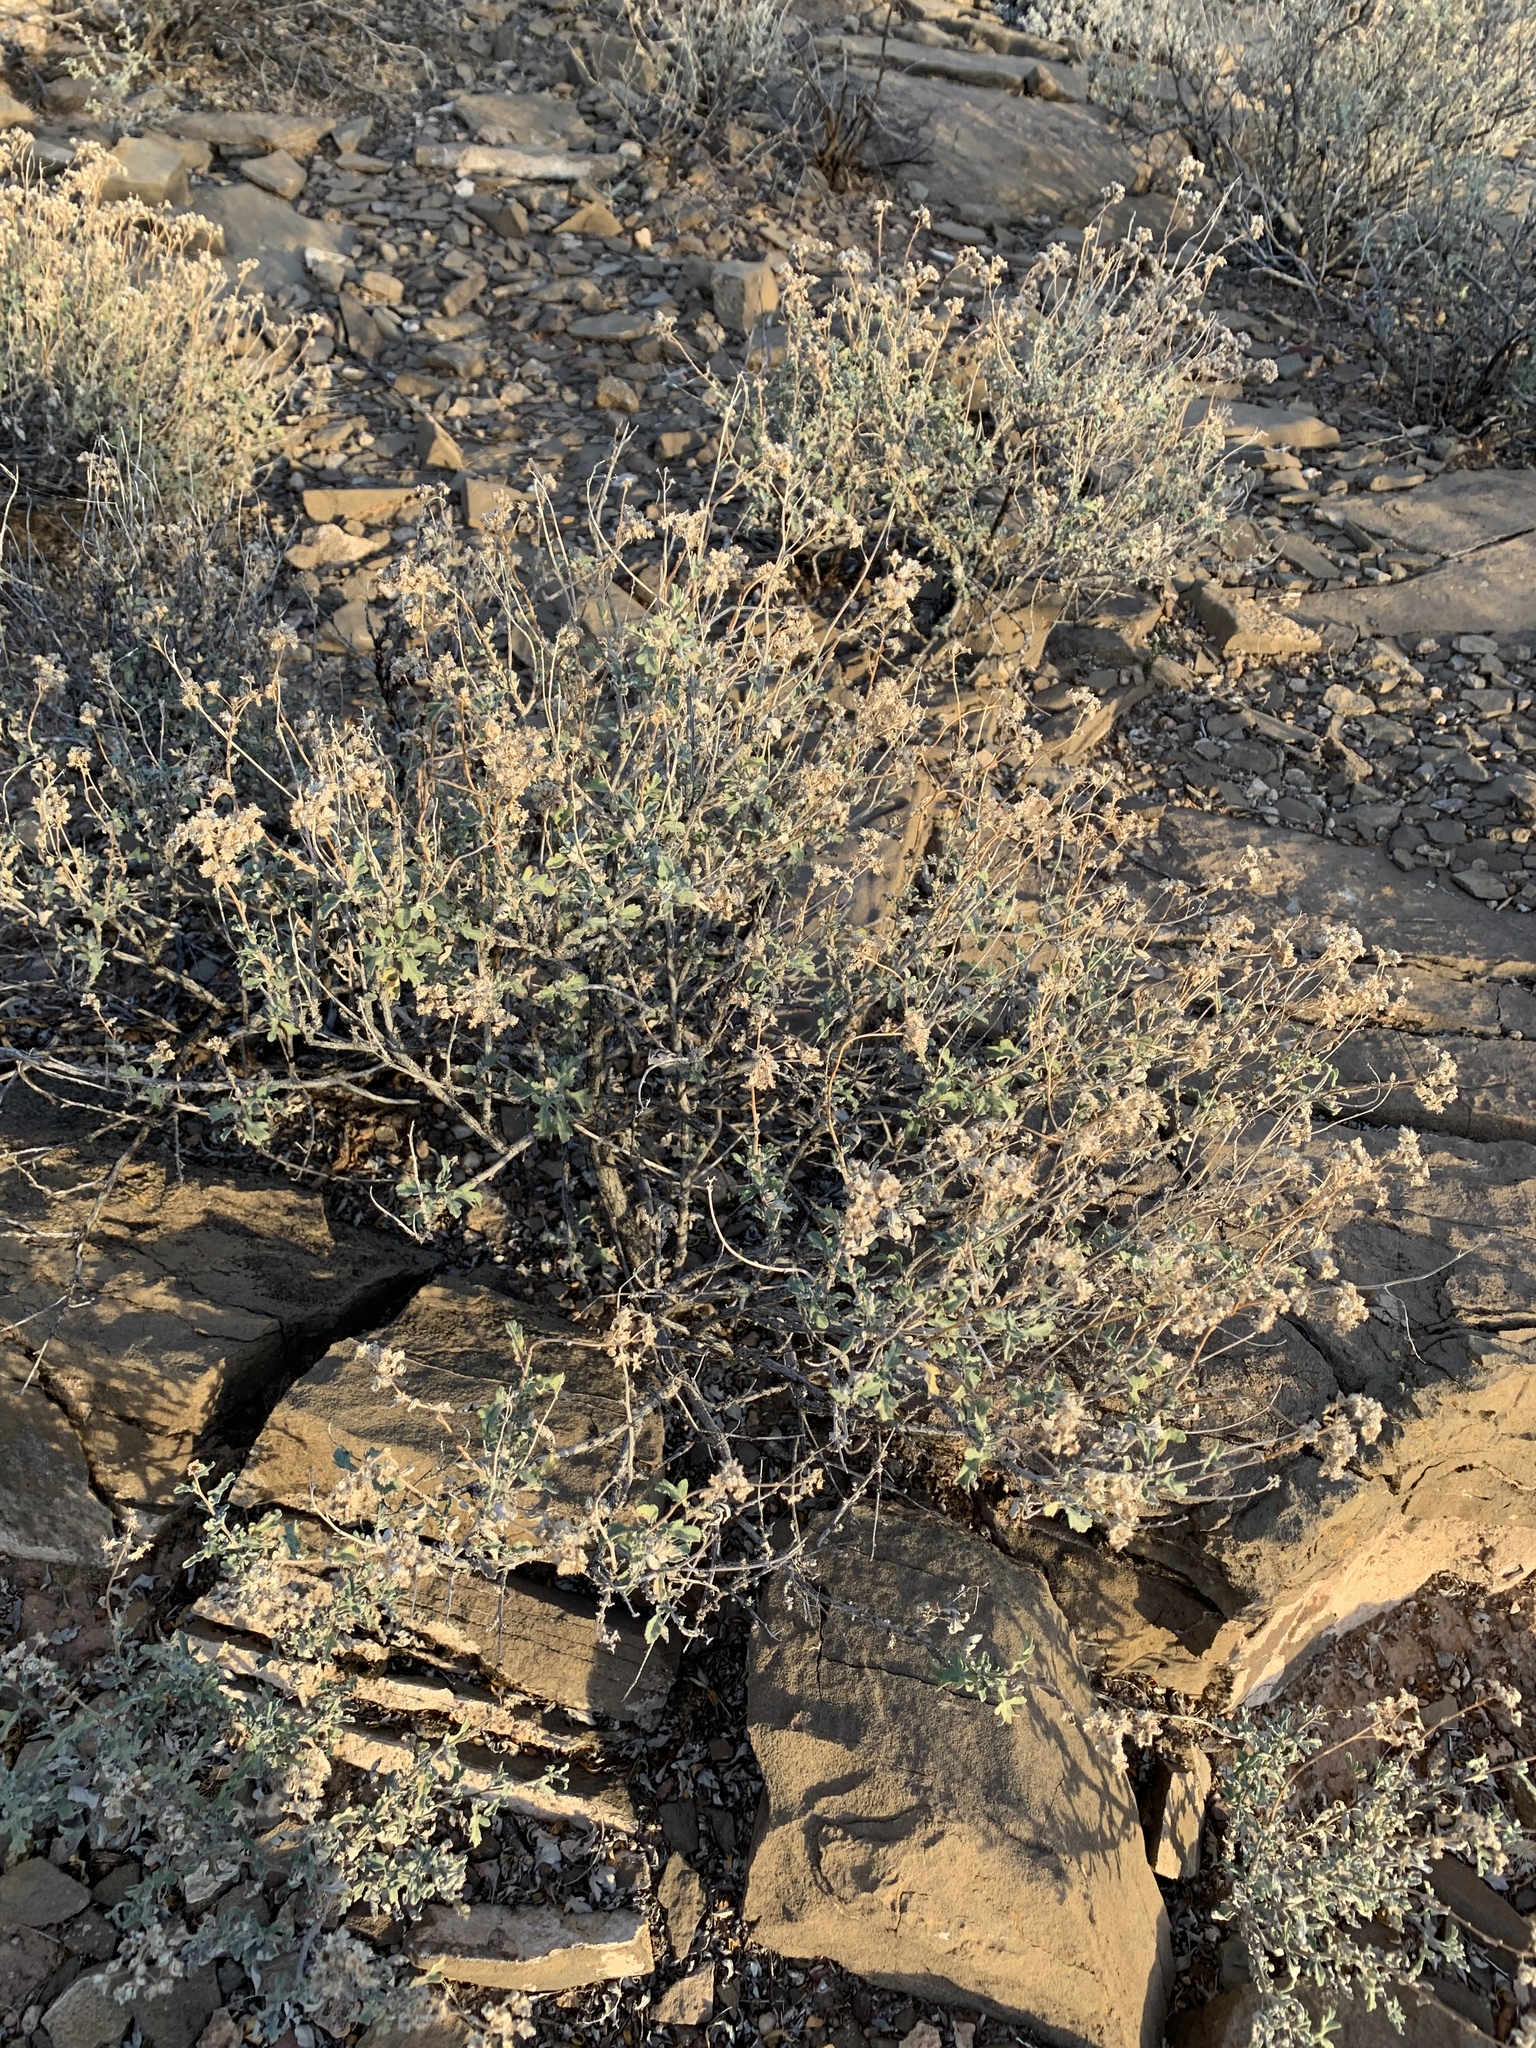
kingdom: Plantae
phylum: Tracheophyta
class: Magnoliopsida
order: Asterales
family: Asteraceae
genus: Parthenium
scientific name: Parthenium incanum
